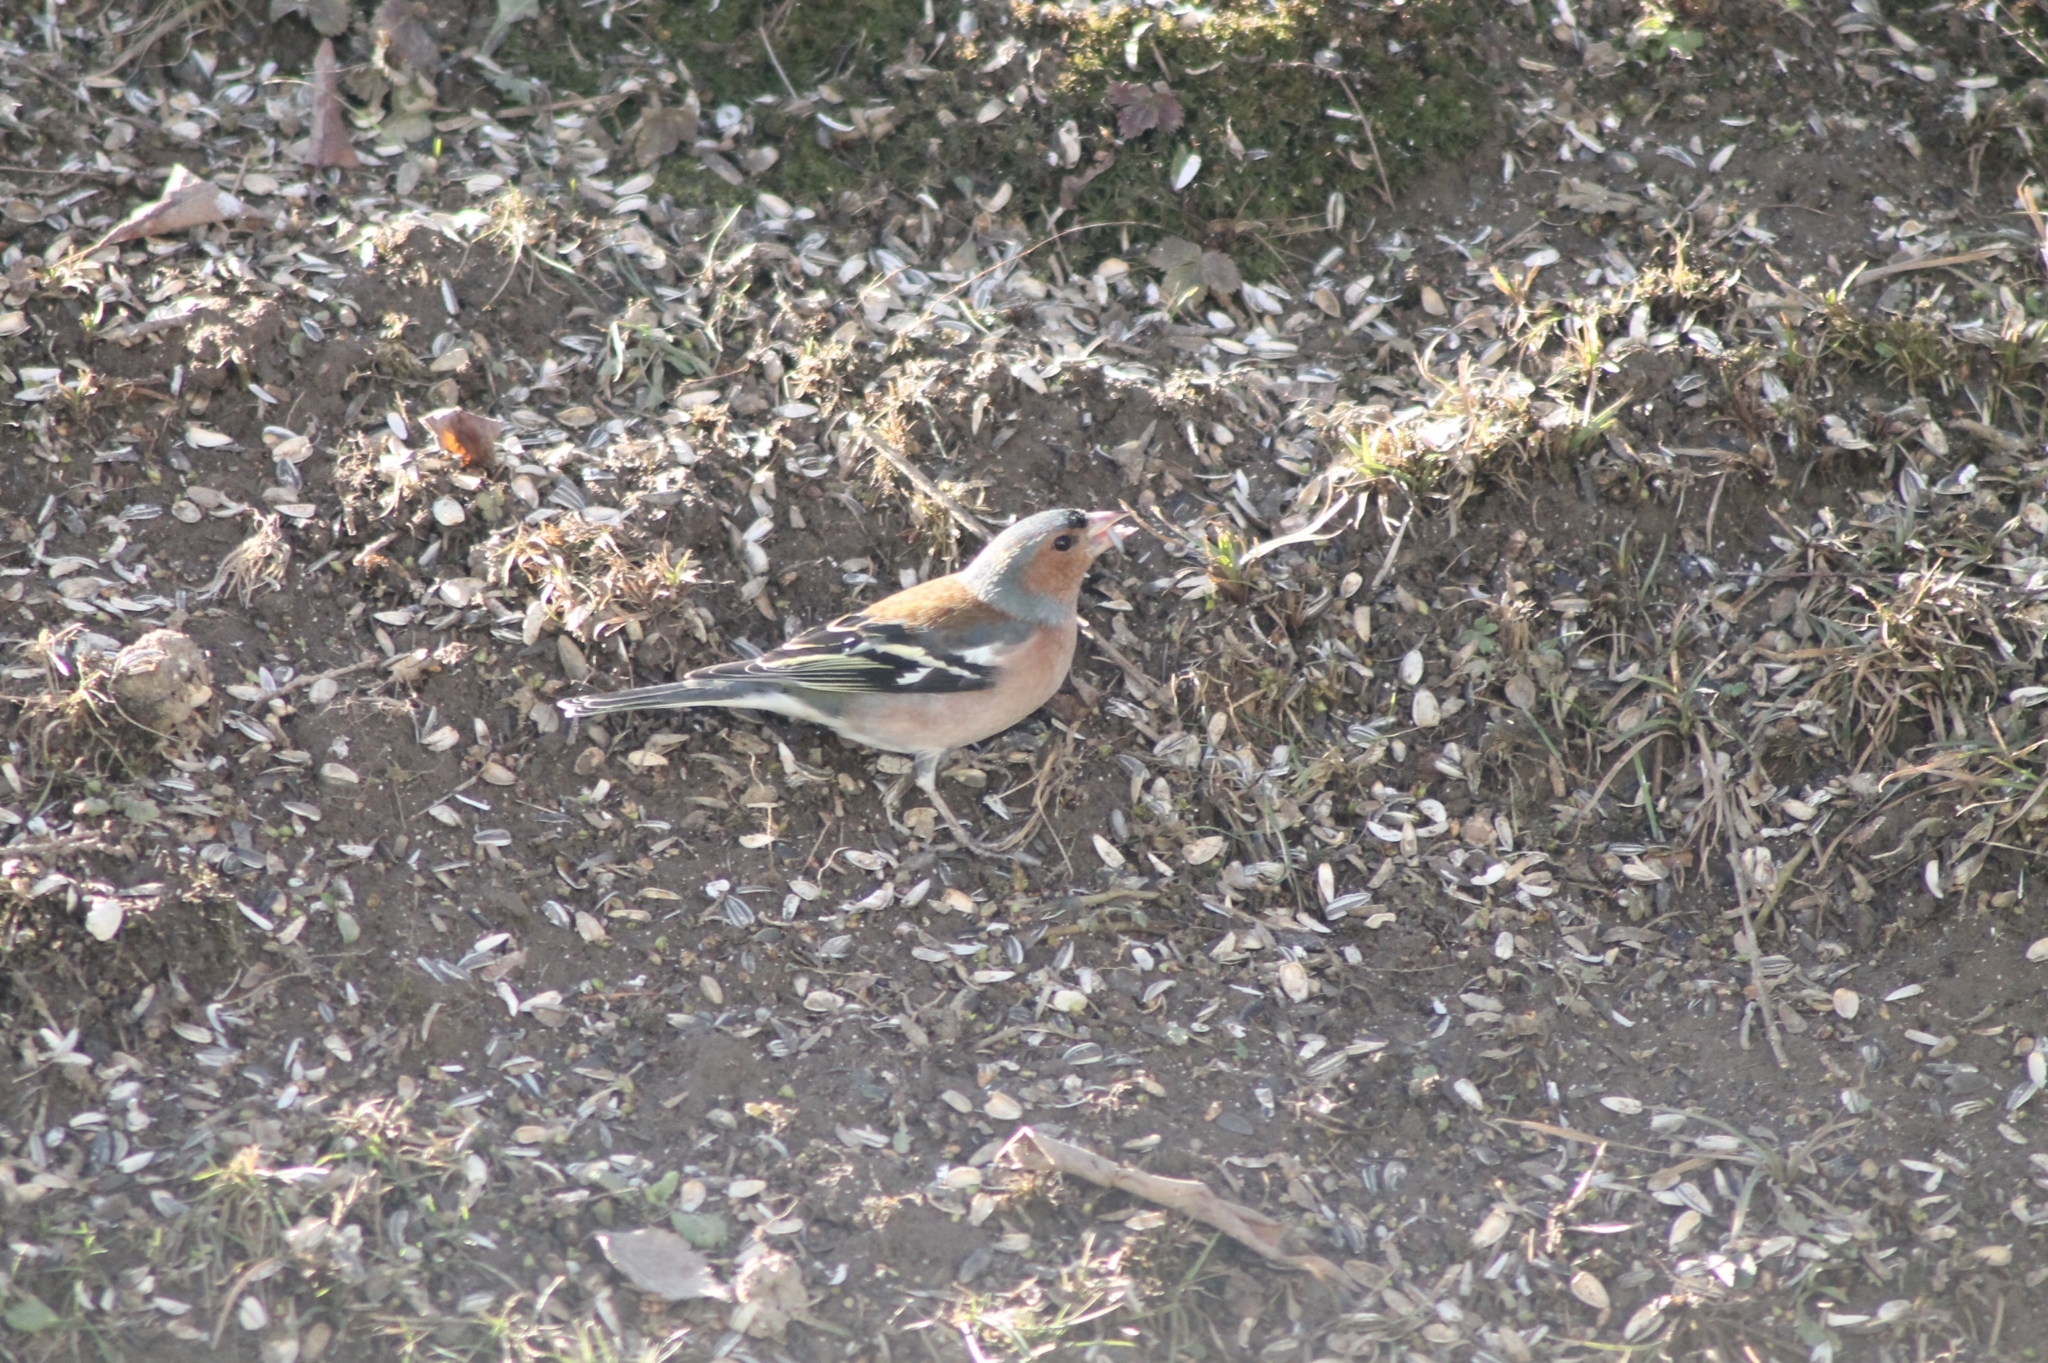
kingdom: Animalia
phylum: Chordata
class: Aves
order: Passeriformes
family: Fringillidae
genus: Fringilla
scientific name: Fringilla coelebs
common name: Common chaffinch
